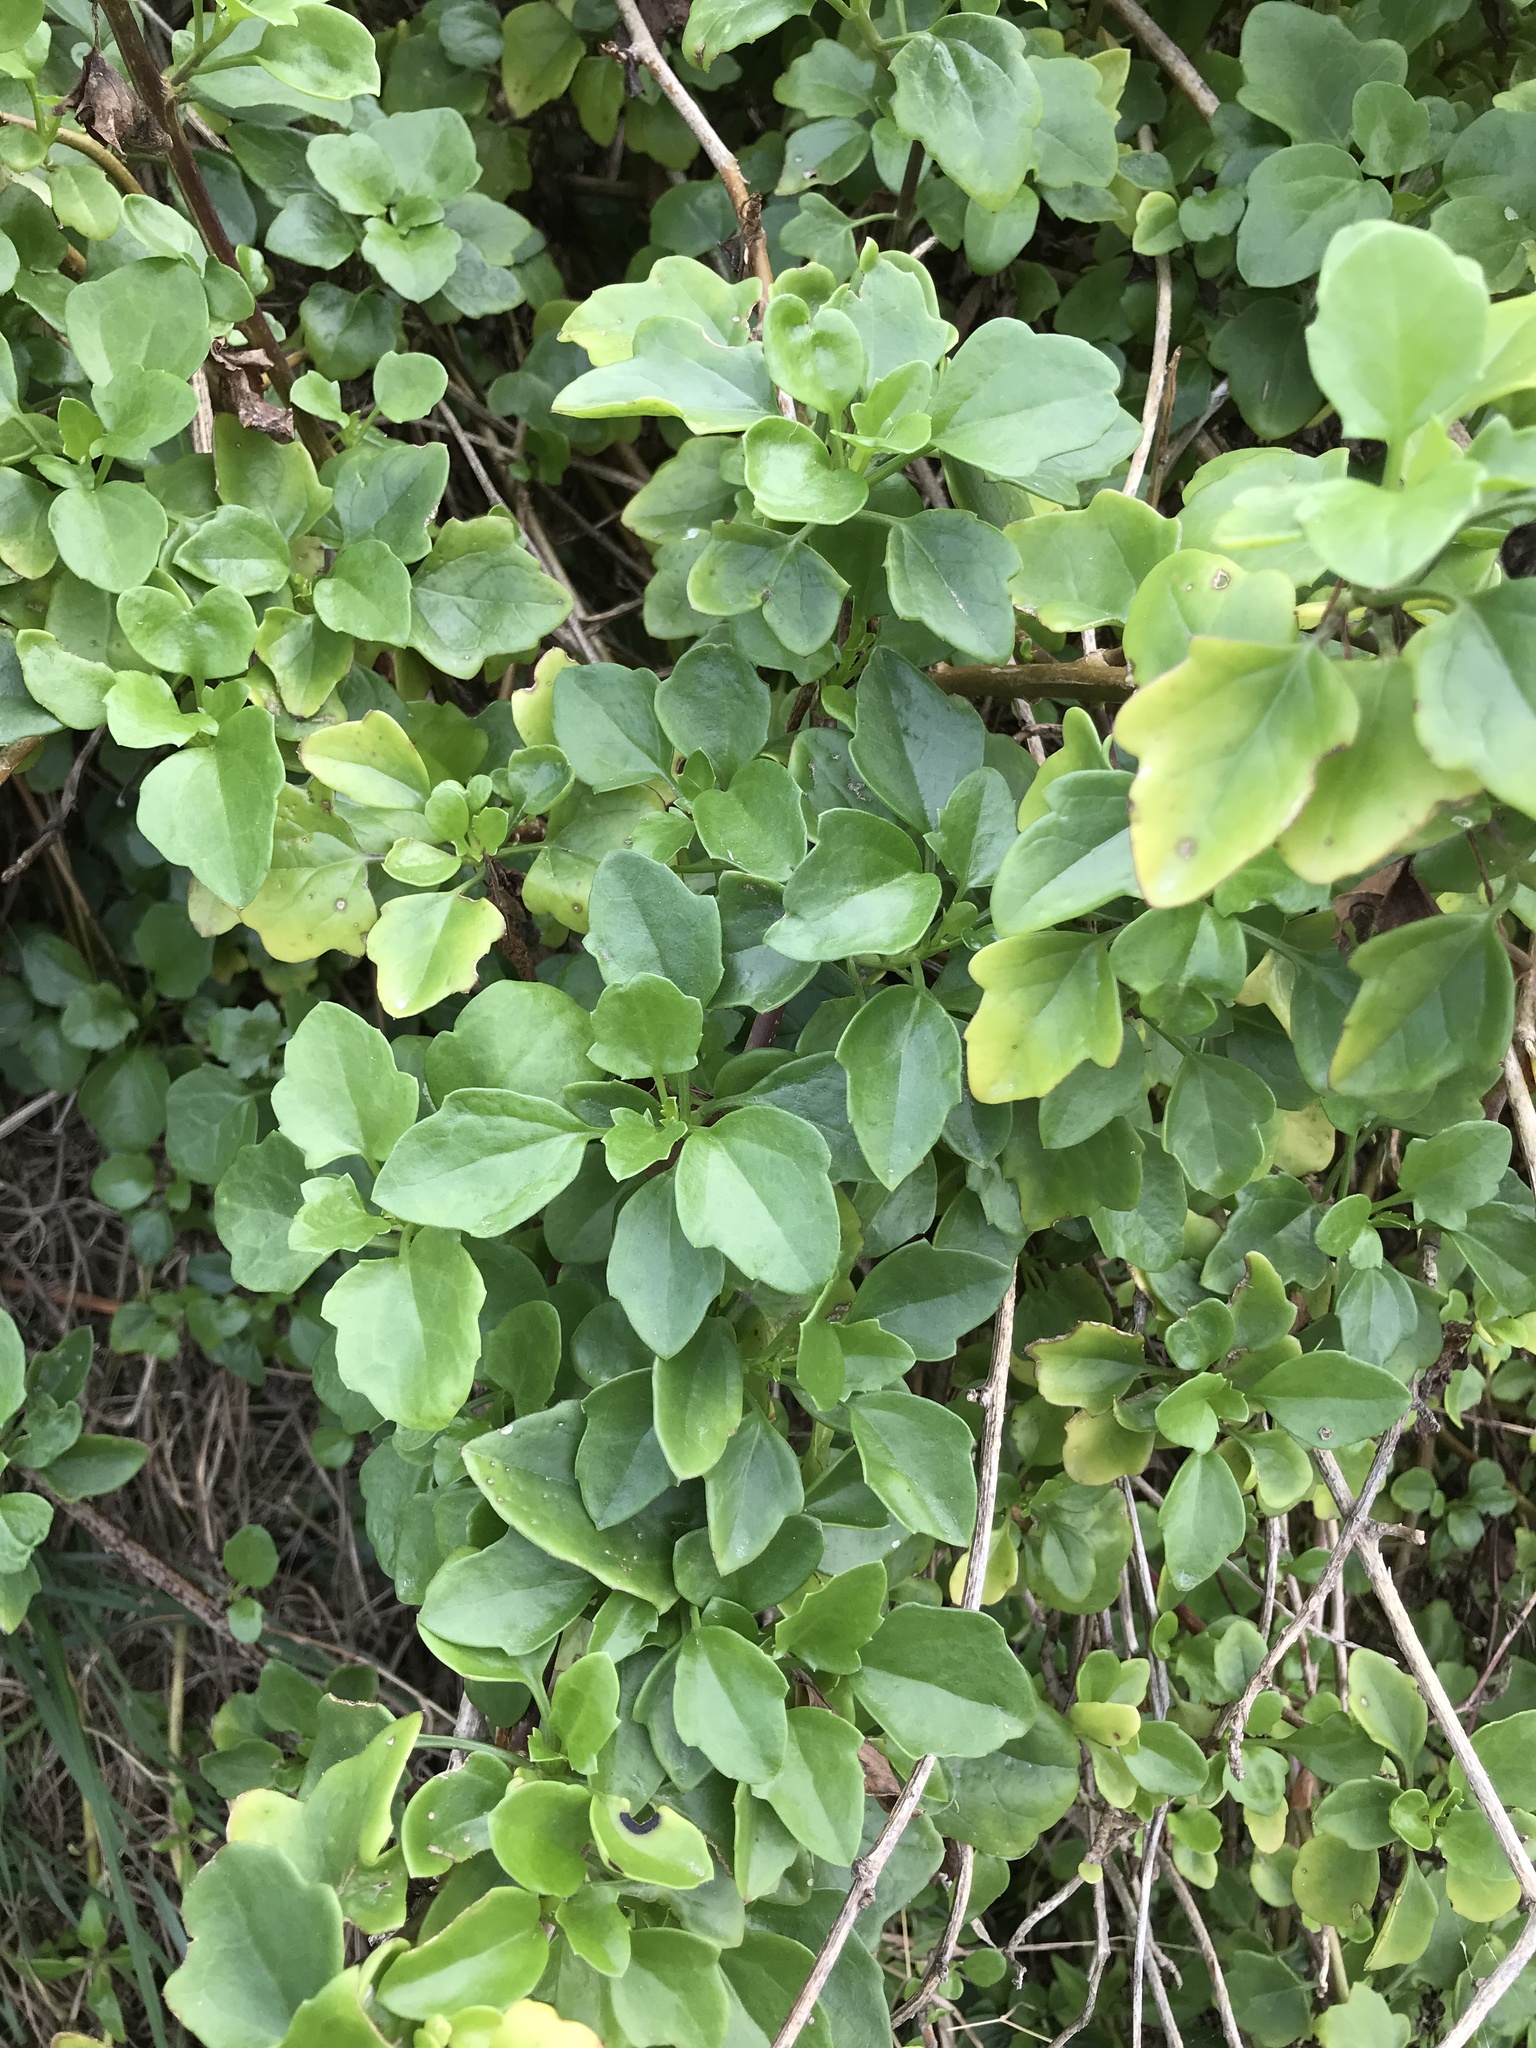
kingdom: Plantae
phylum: Tracheophyta
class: Magnoliopsida
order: Asterales
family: Asteraceae
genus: Senecio
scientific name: Senecio angulatus
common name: Climbing groundsel
